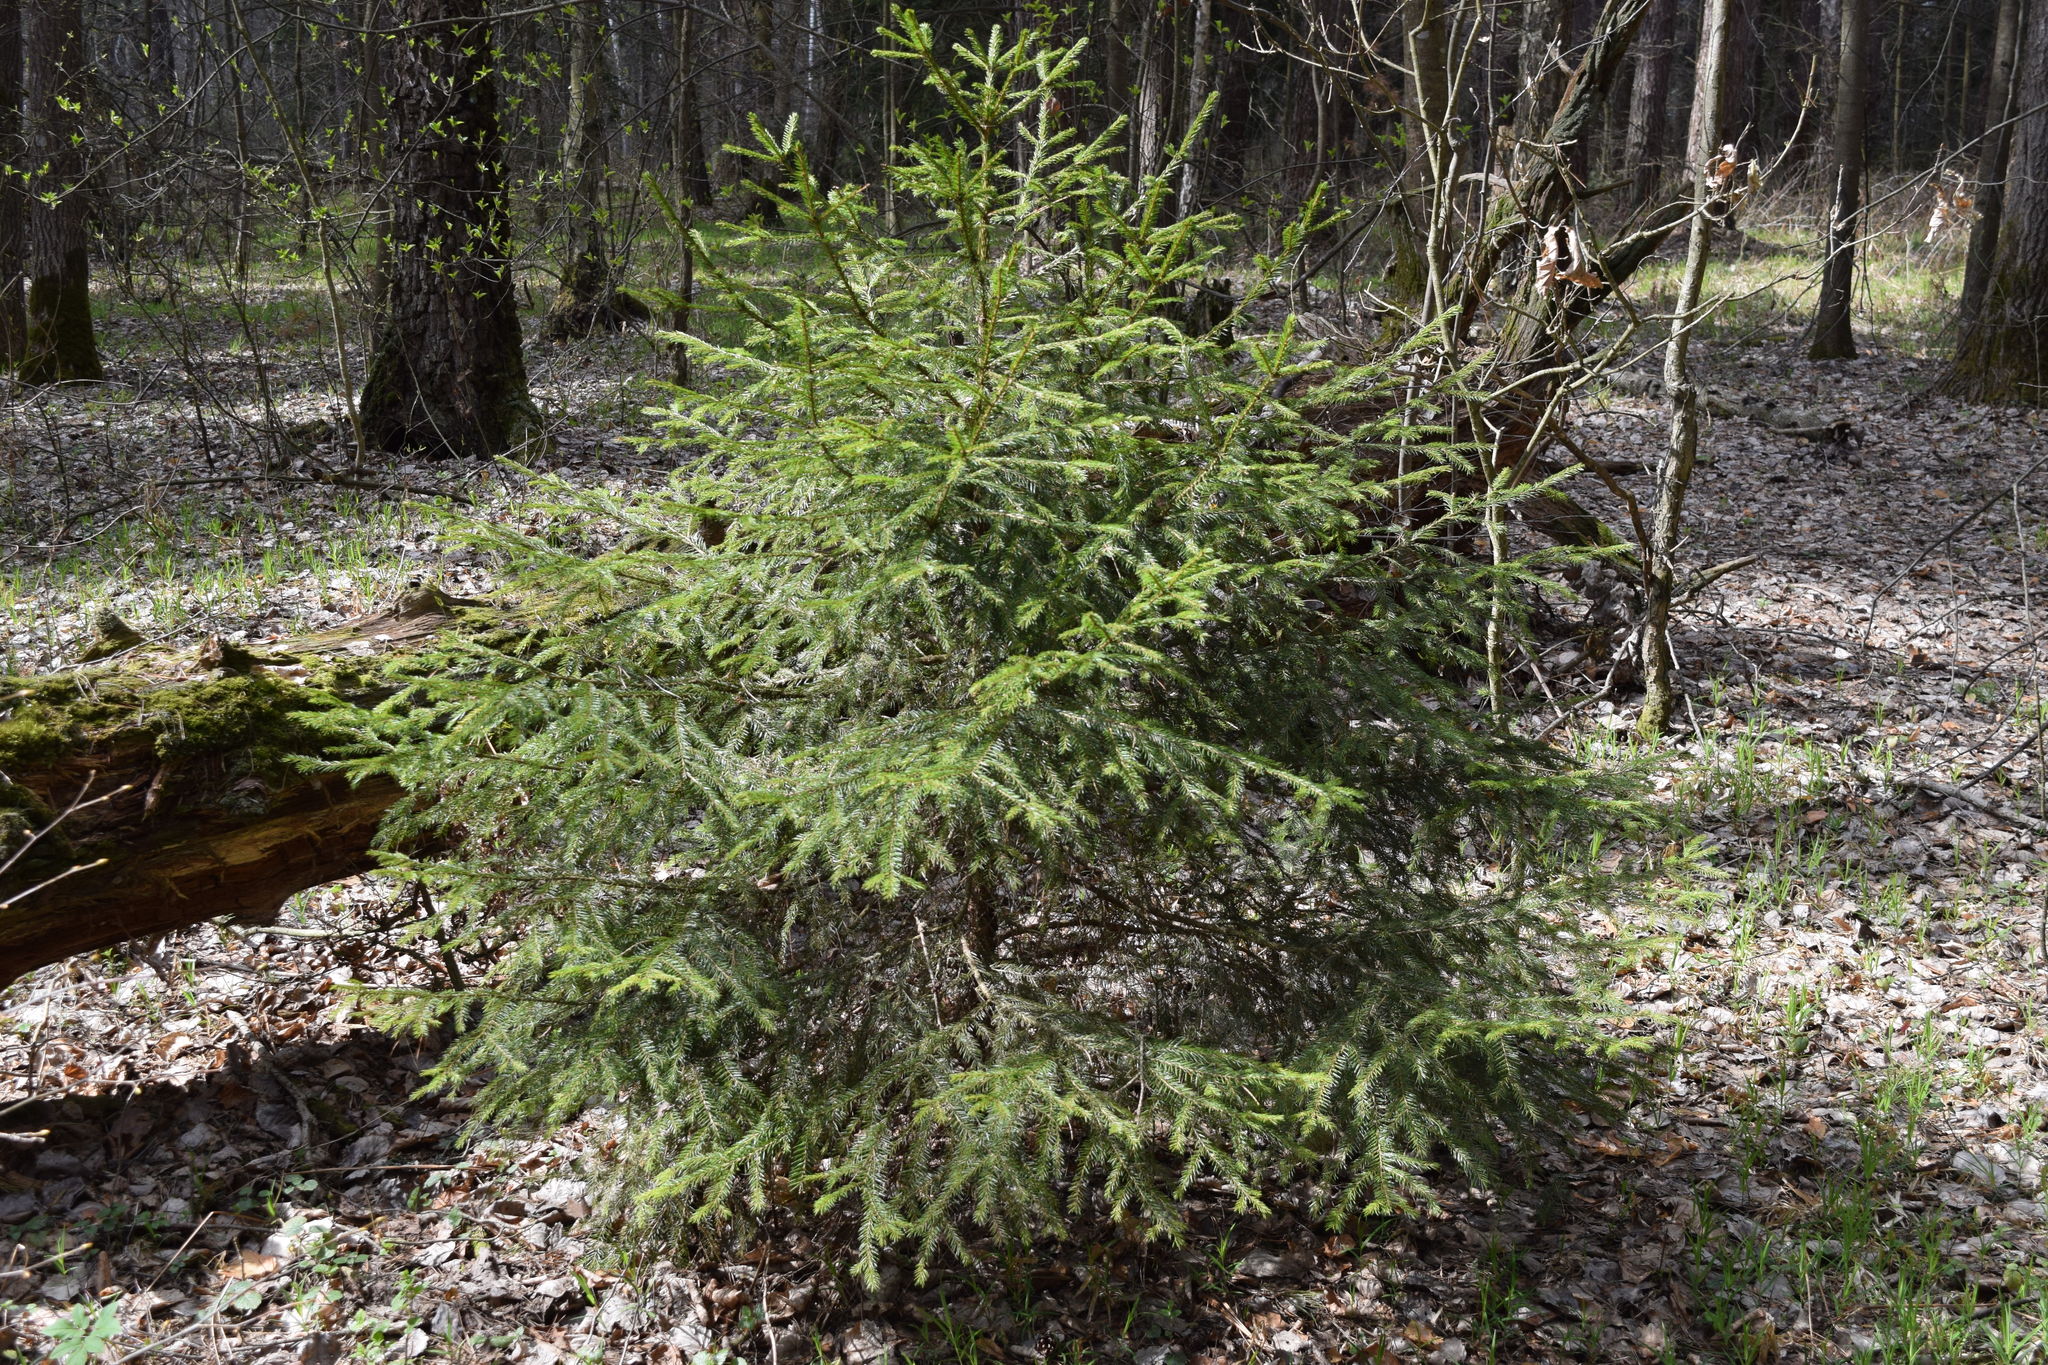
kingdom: Plantae
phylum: Tracheophyta
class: Pinopsida
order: Pinales
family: Pinaceae
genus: Picea
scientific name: Picea abies
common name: Norway spruce
